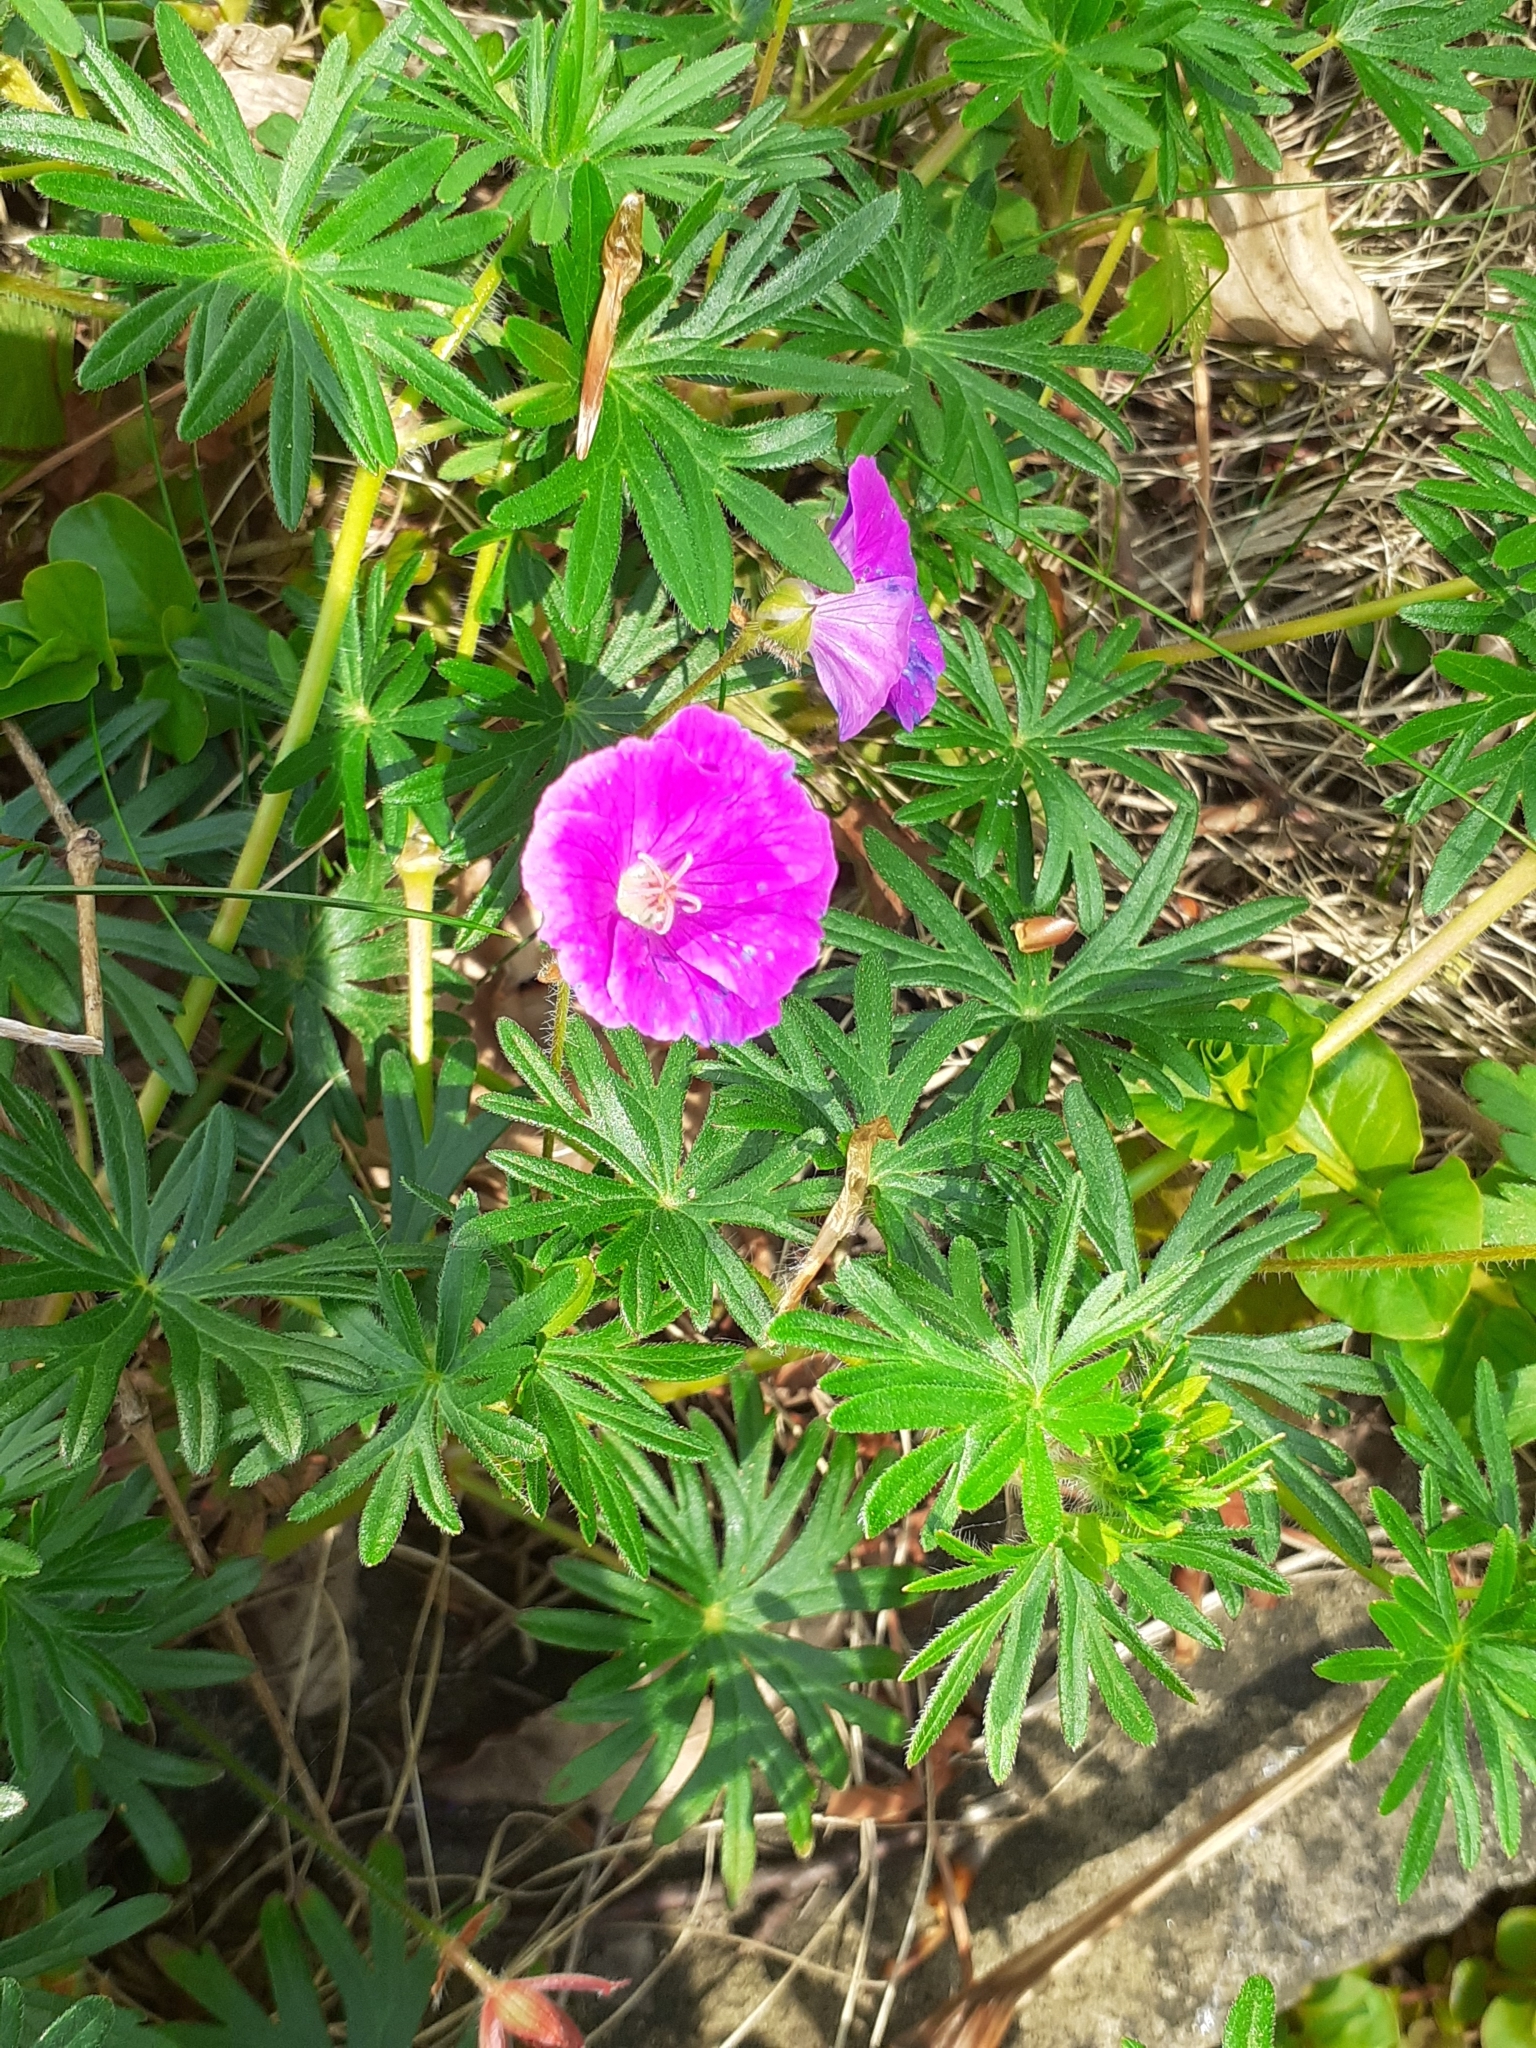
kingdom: Plantae
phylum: Tracheophyta
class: Magnoliopsida
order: Geraniales
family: Geraniaceae
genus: Geranium
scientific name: Geranium sanguineum
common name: Bloody crane's-bill
